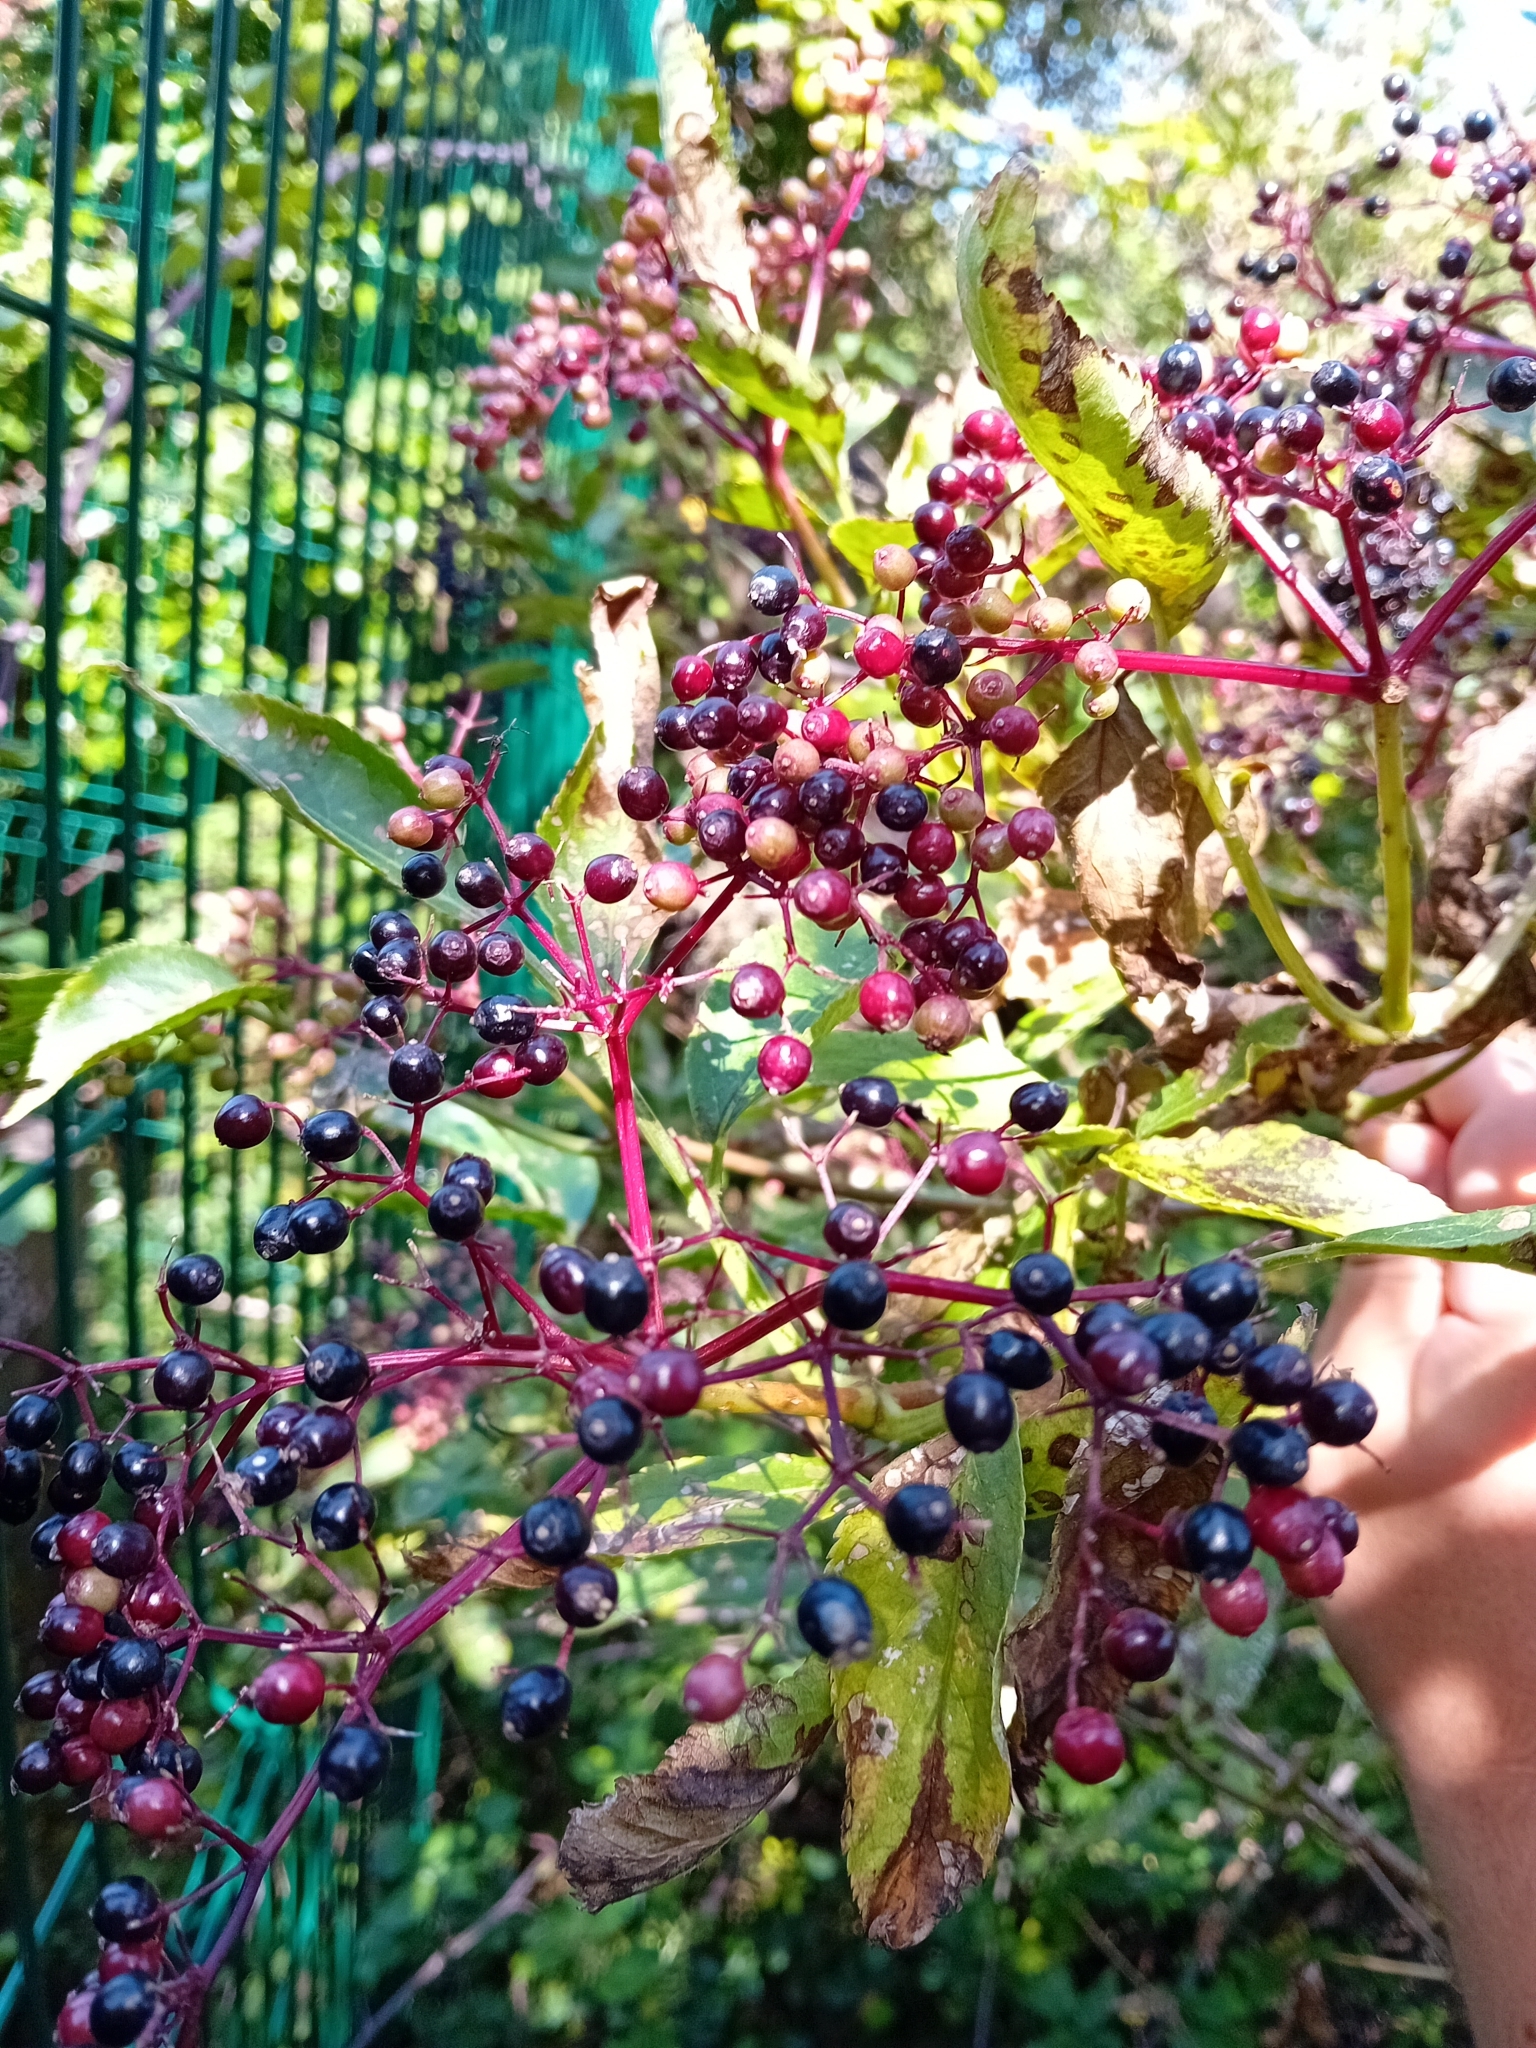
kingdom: Plantae
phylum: Tracheophyta
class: Magnoliopsida
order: Dipsacales
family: Viburnaceae
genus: Sambucus
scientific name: Sambucus nigra
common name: Elder
